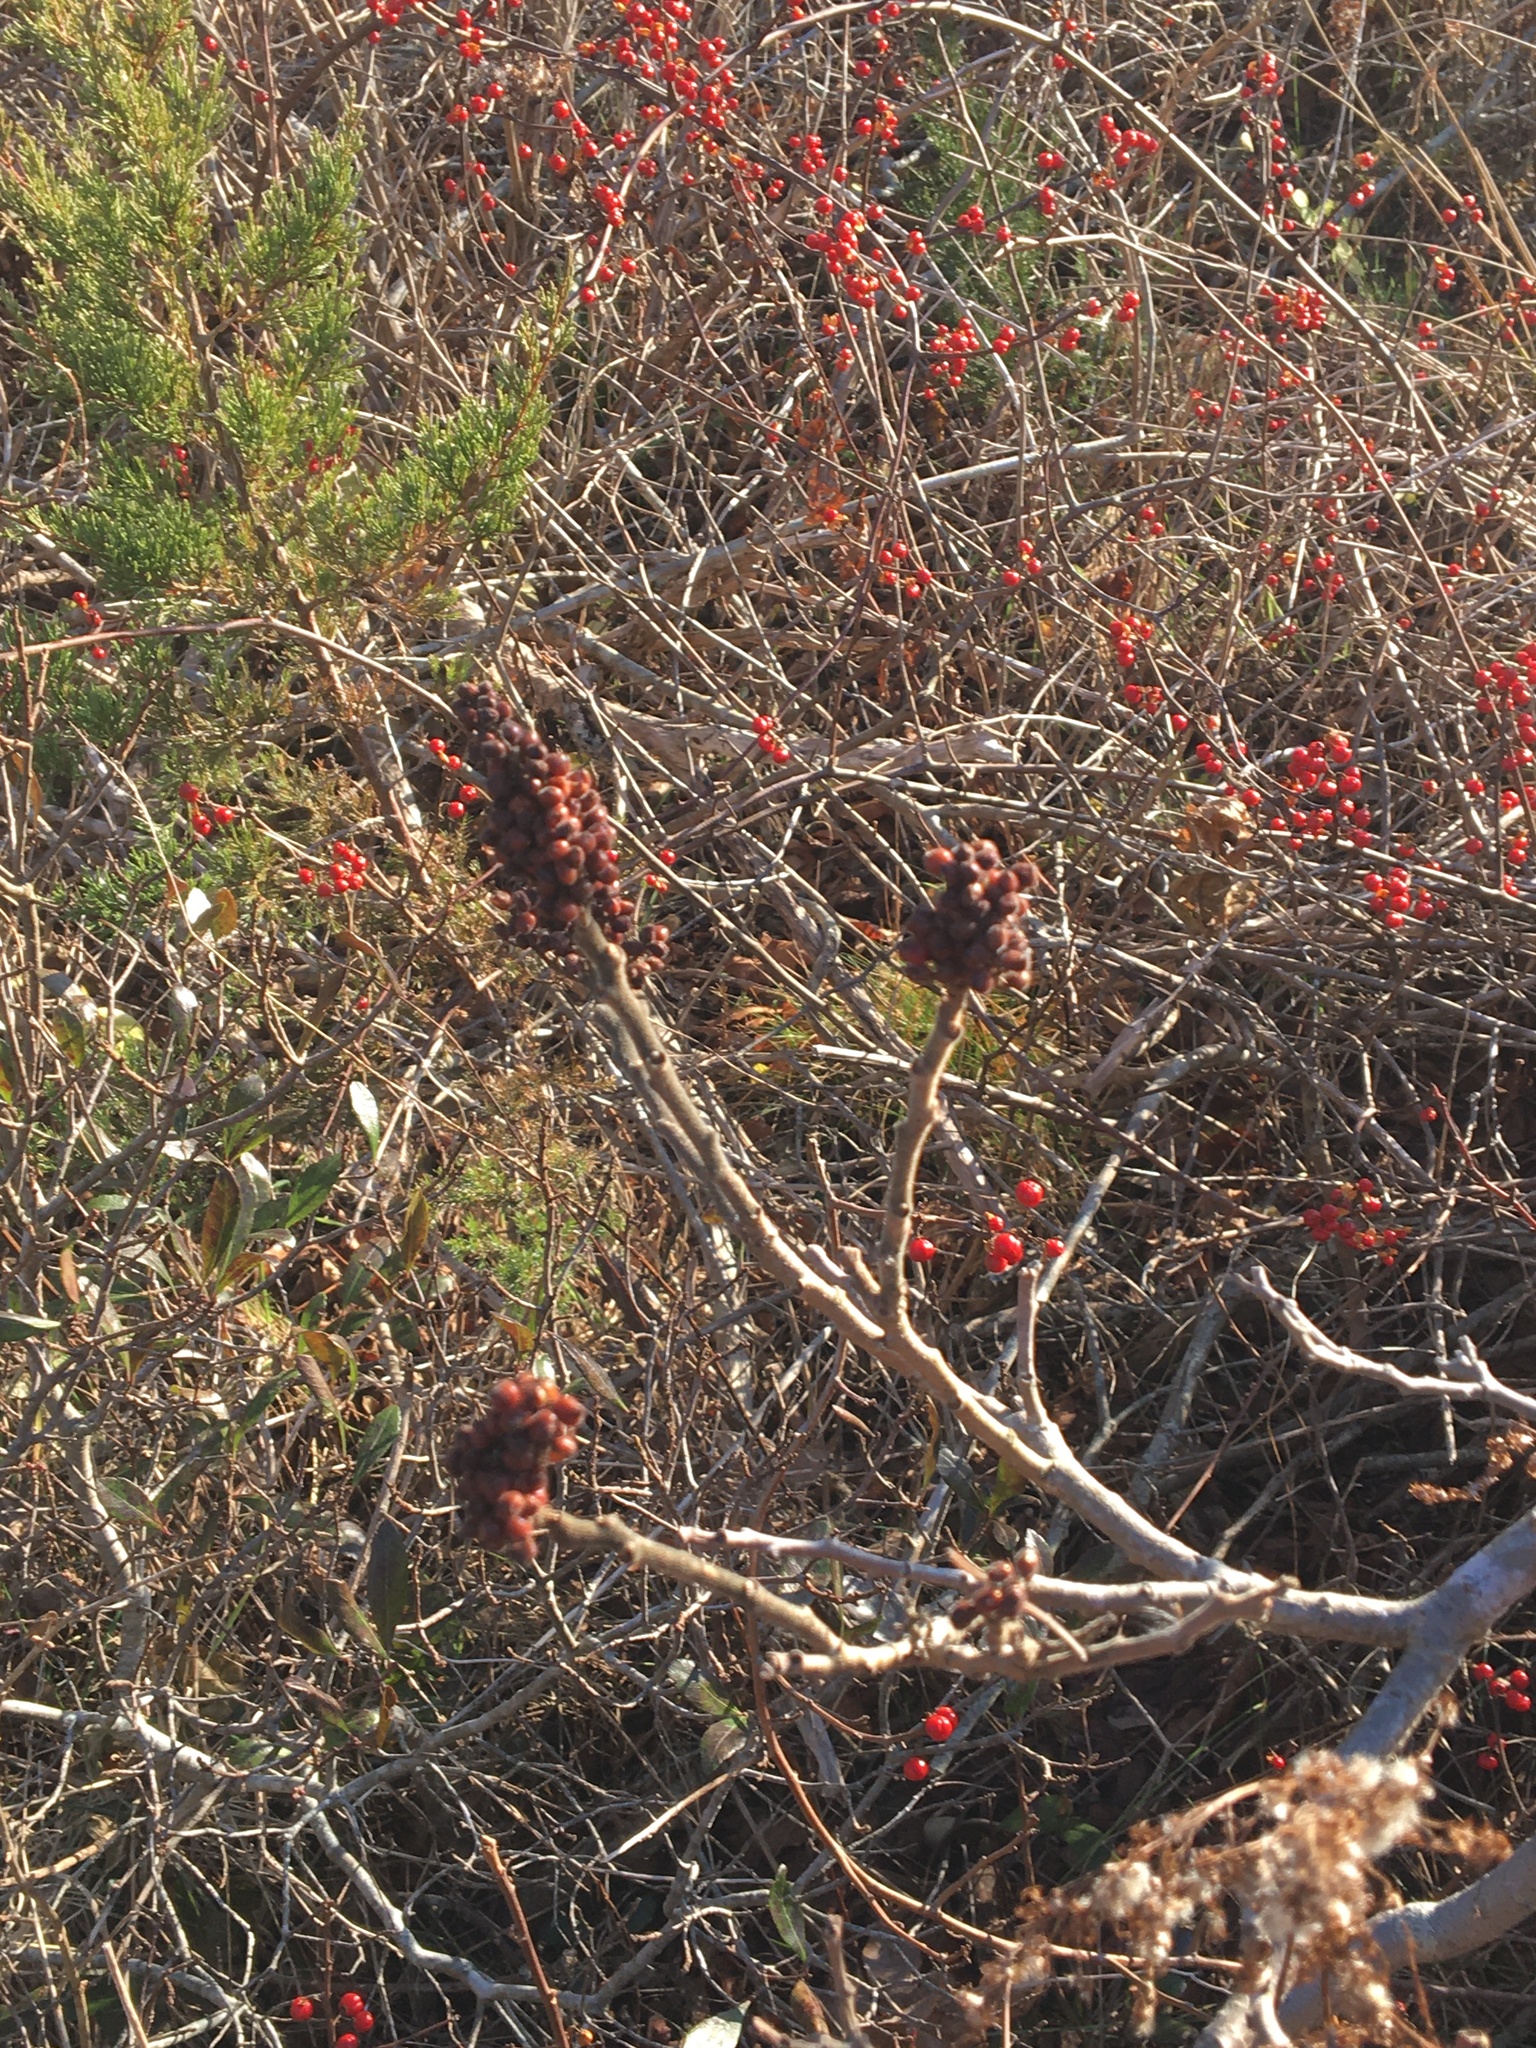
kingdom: Plantae
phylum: Tracheophyta
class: Magnoliopsida
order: Sapindales
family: Anacardiaceae
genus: Rhus
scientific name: Rhus copallina
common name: Shining sumac
